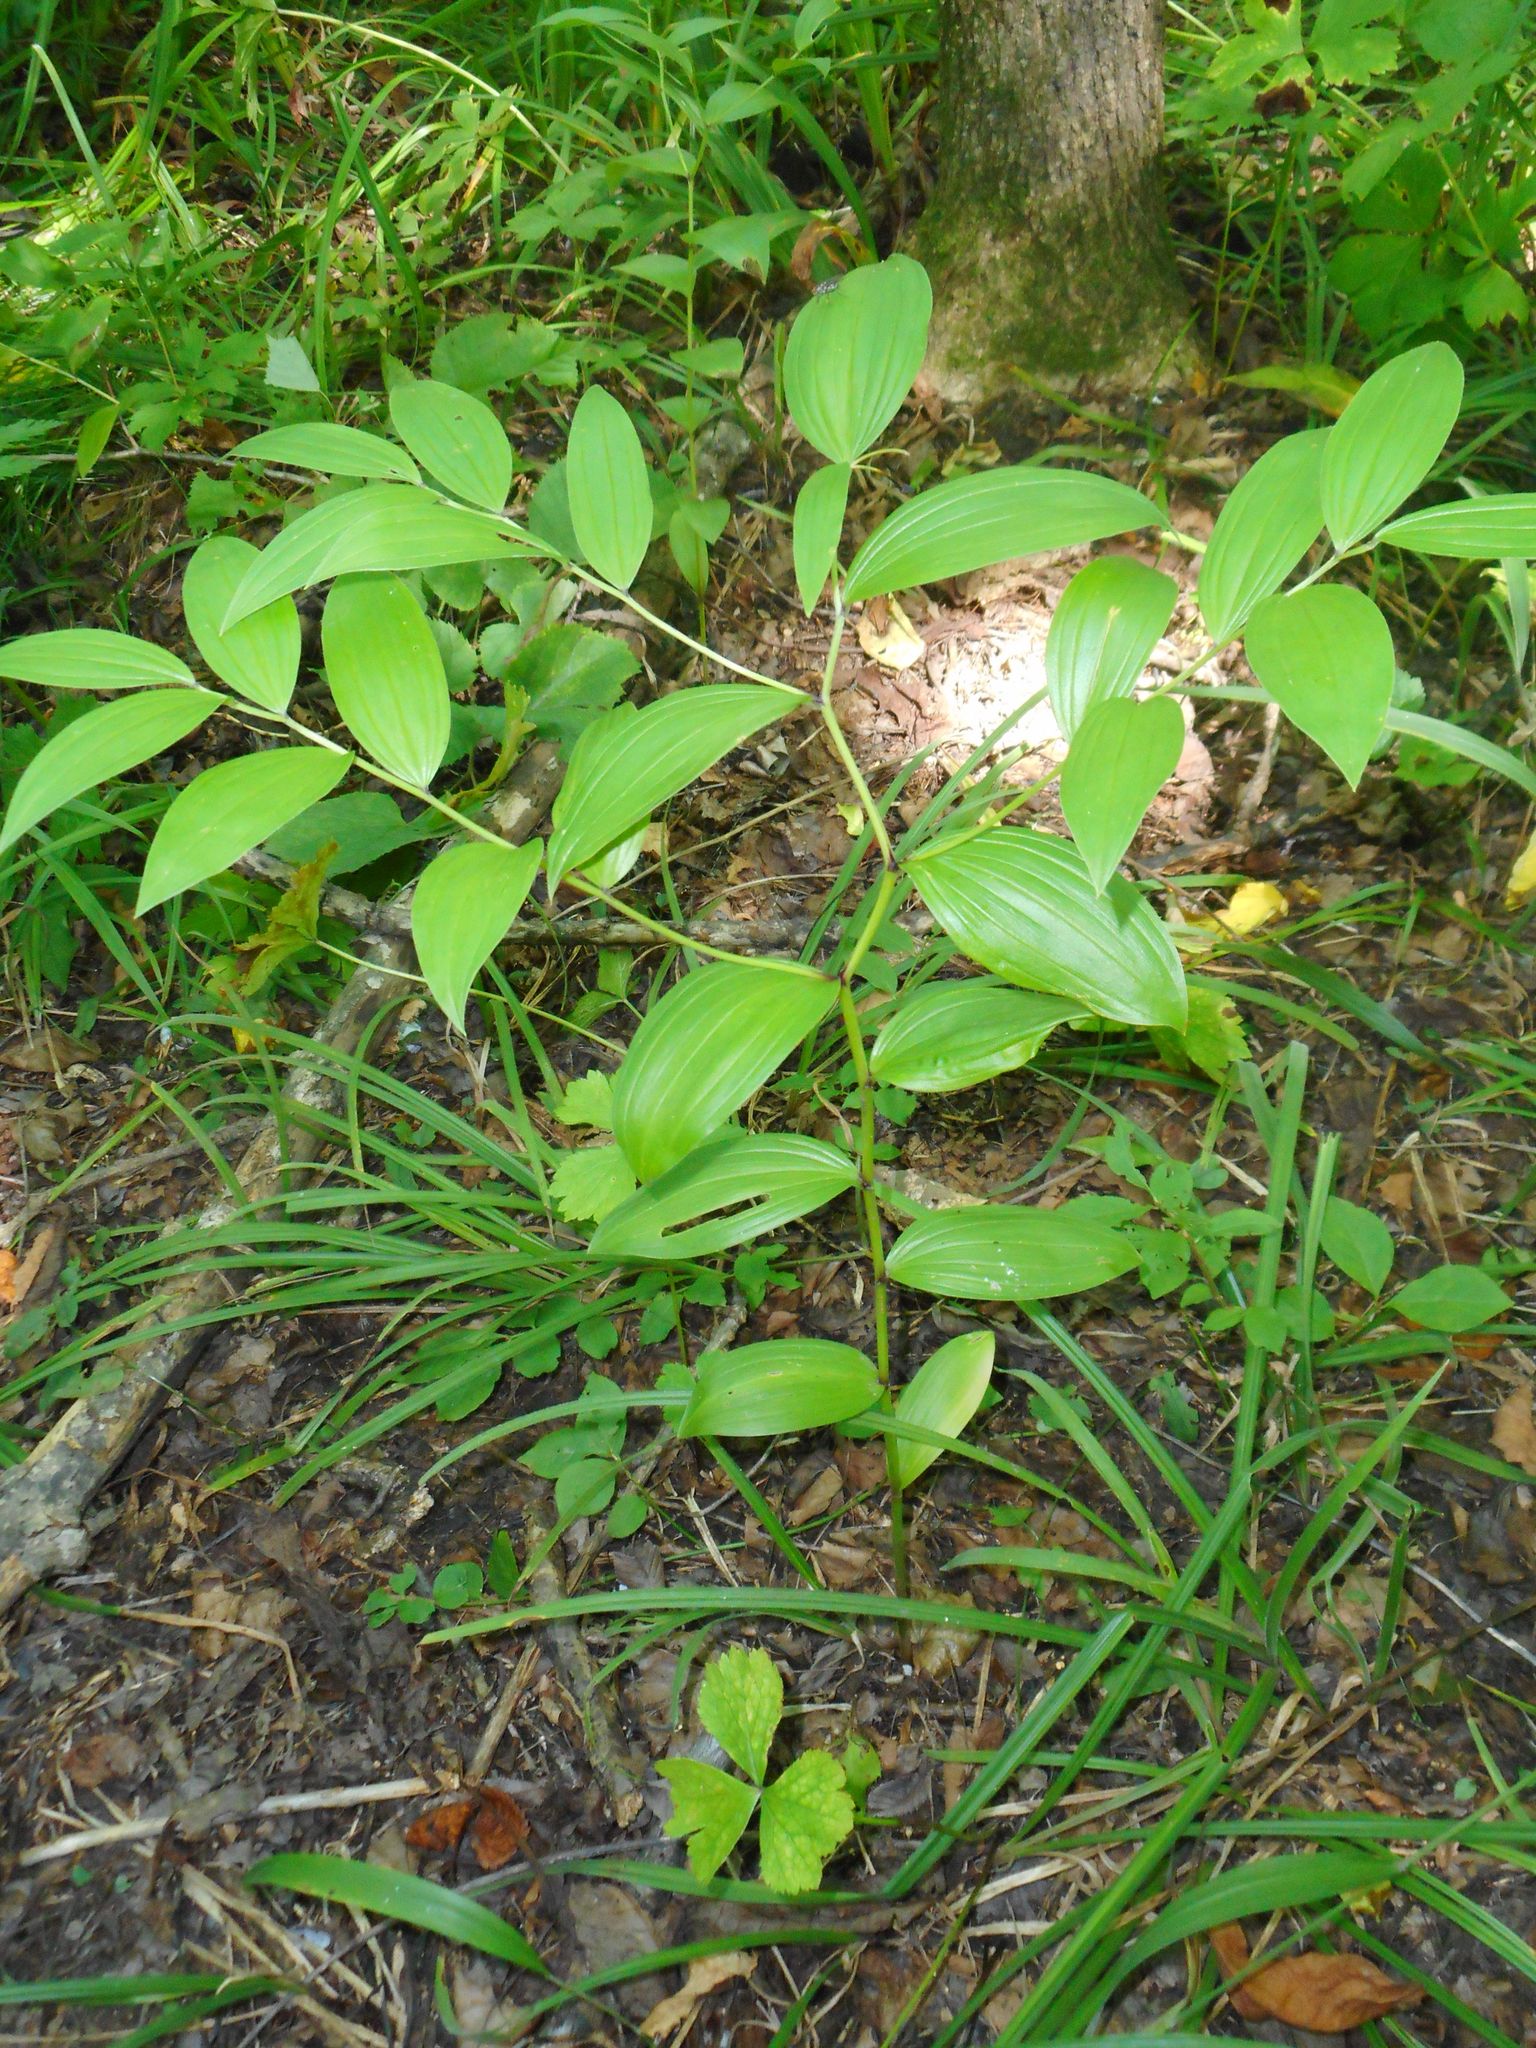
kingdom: Plantae
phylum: Tracheophyta
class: Liliopsida
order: Liliales
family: Colchicaceae
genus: Disporum
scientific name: Disporum viridescens
